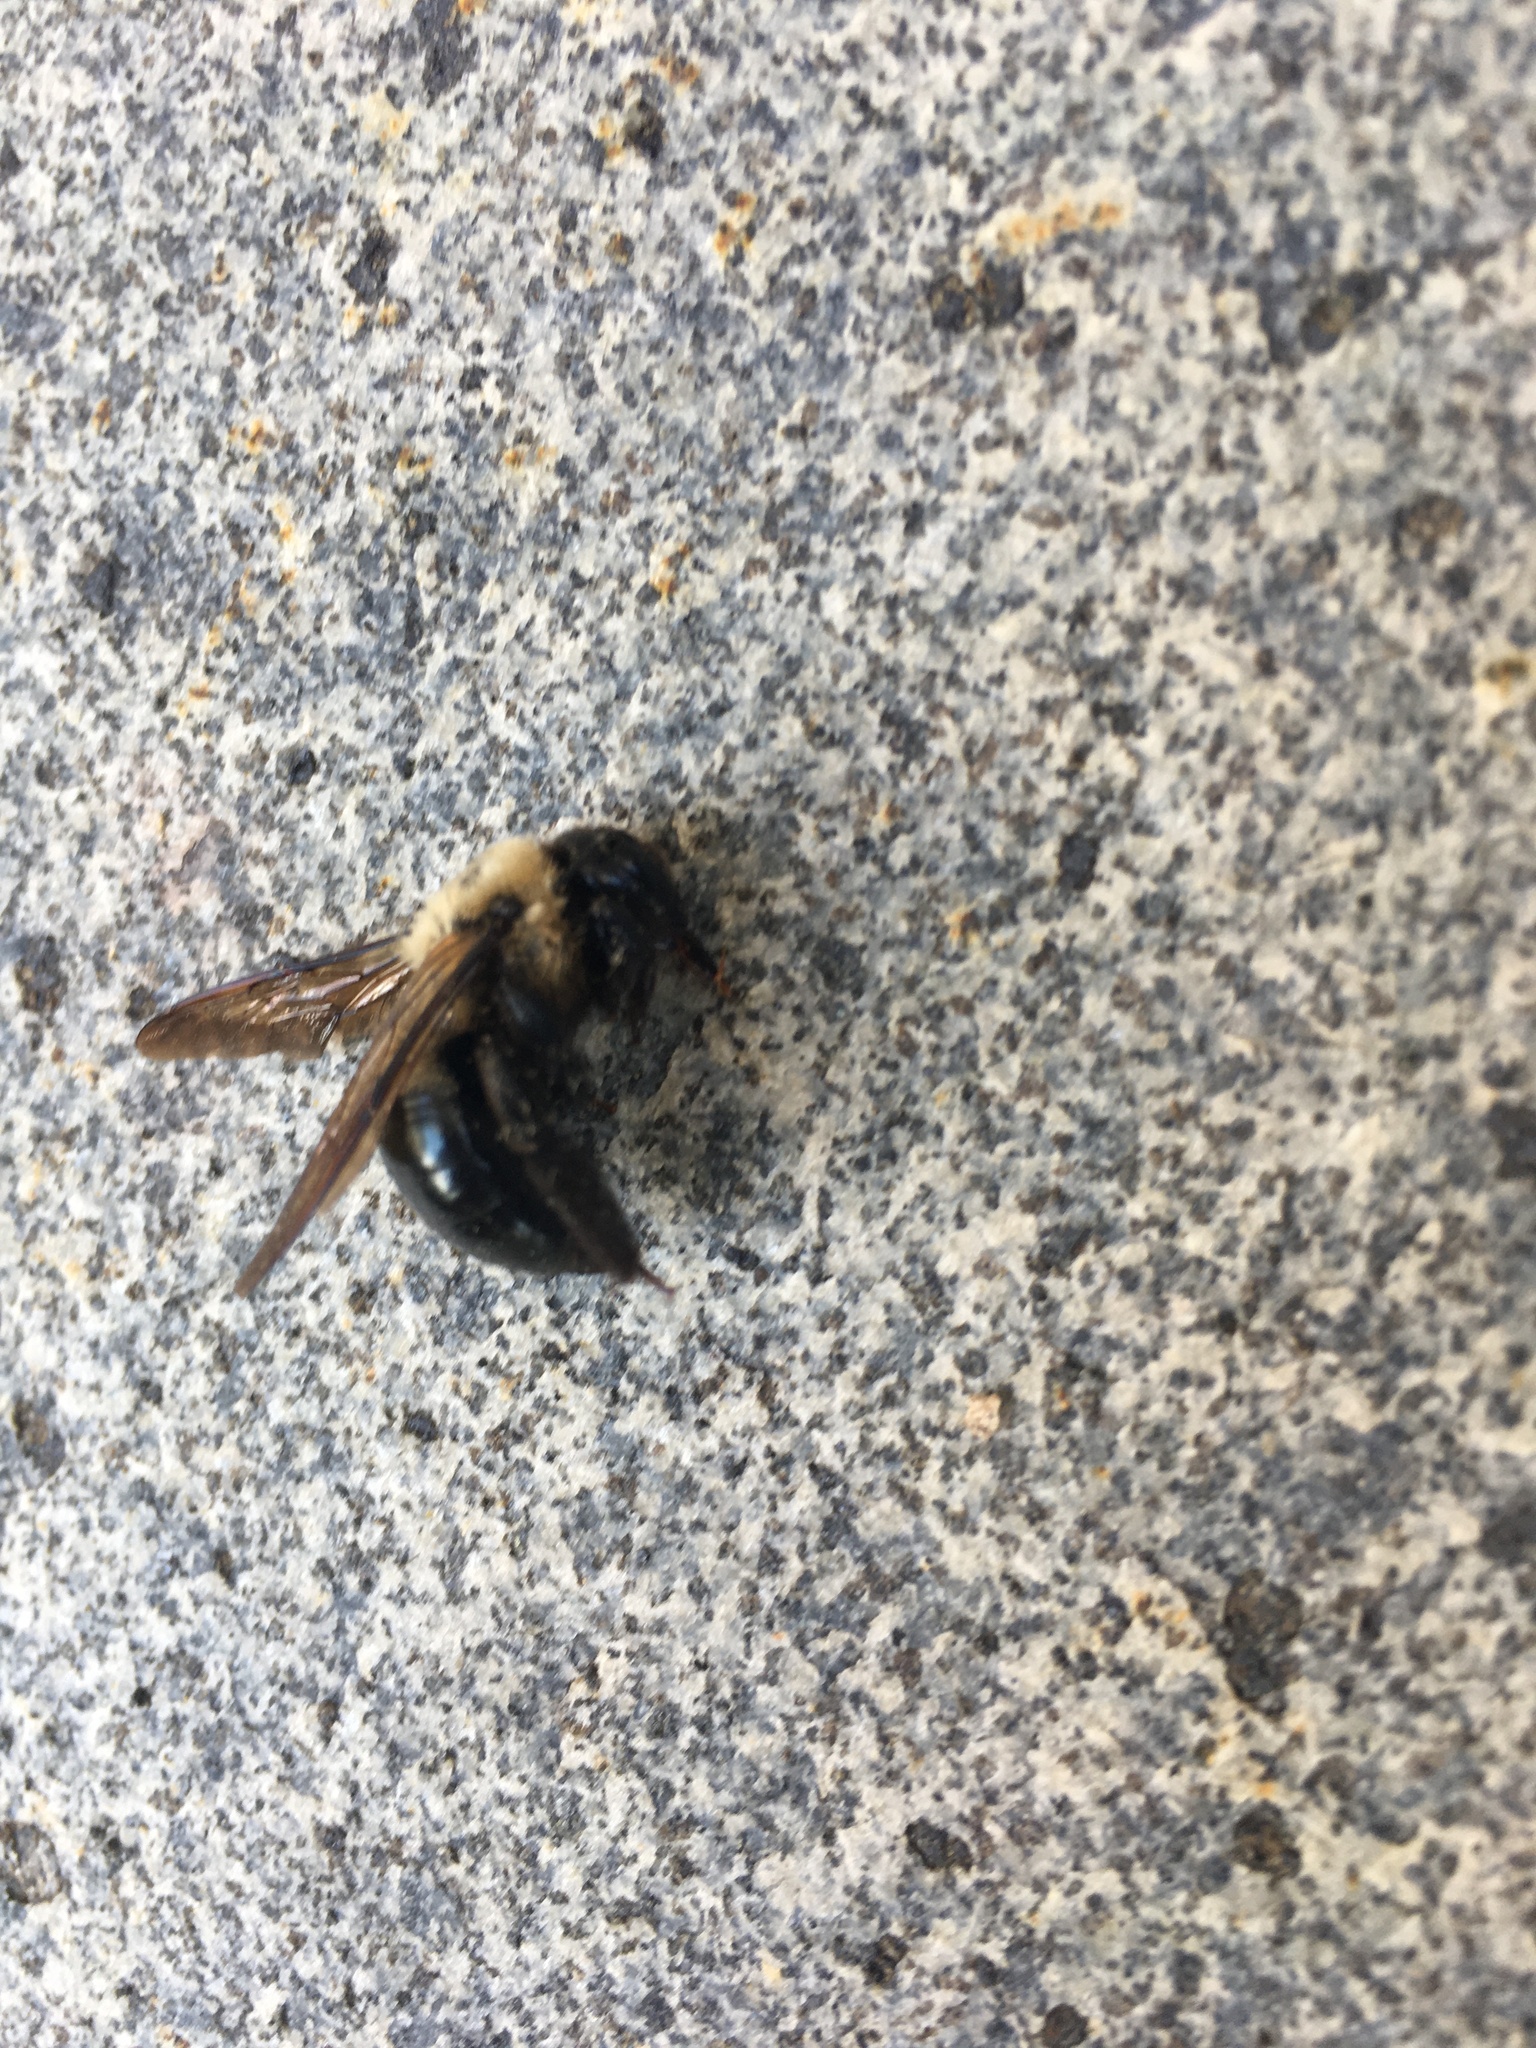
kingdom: Animalia
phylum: Arthropoda
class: Insecta
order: Hymenoptera
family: Apidae
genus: Xylocopa
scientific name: Xylocopa virginica
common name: Carpenter bee
